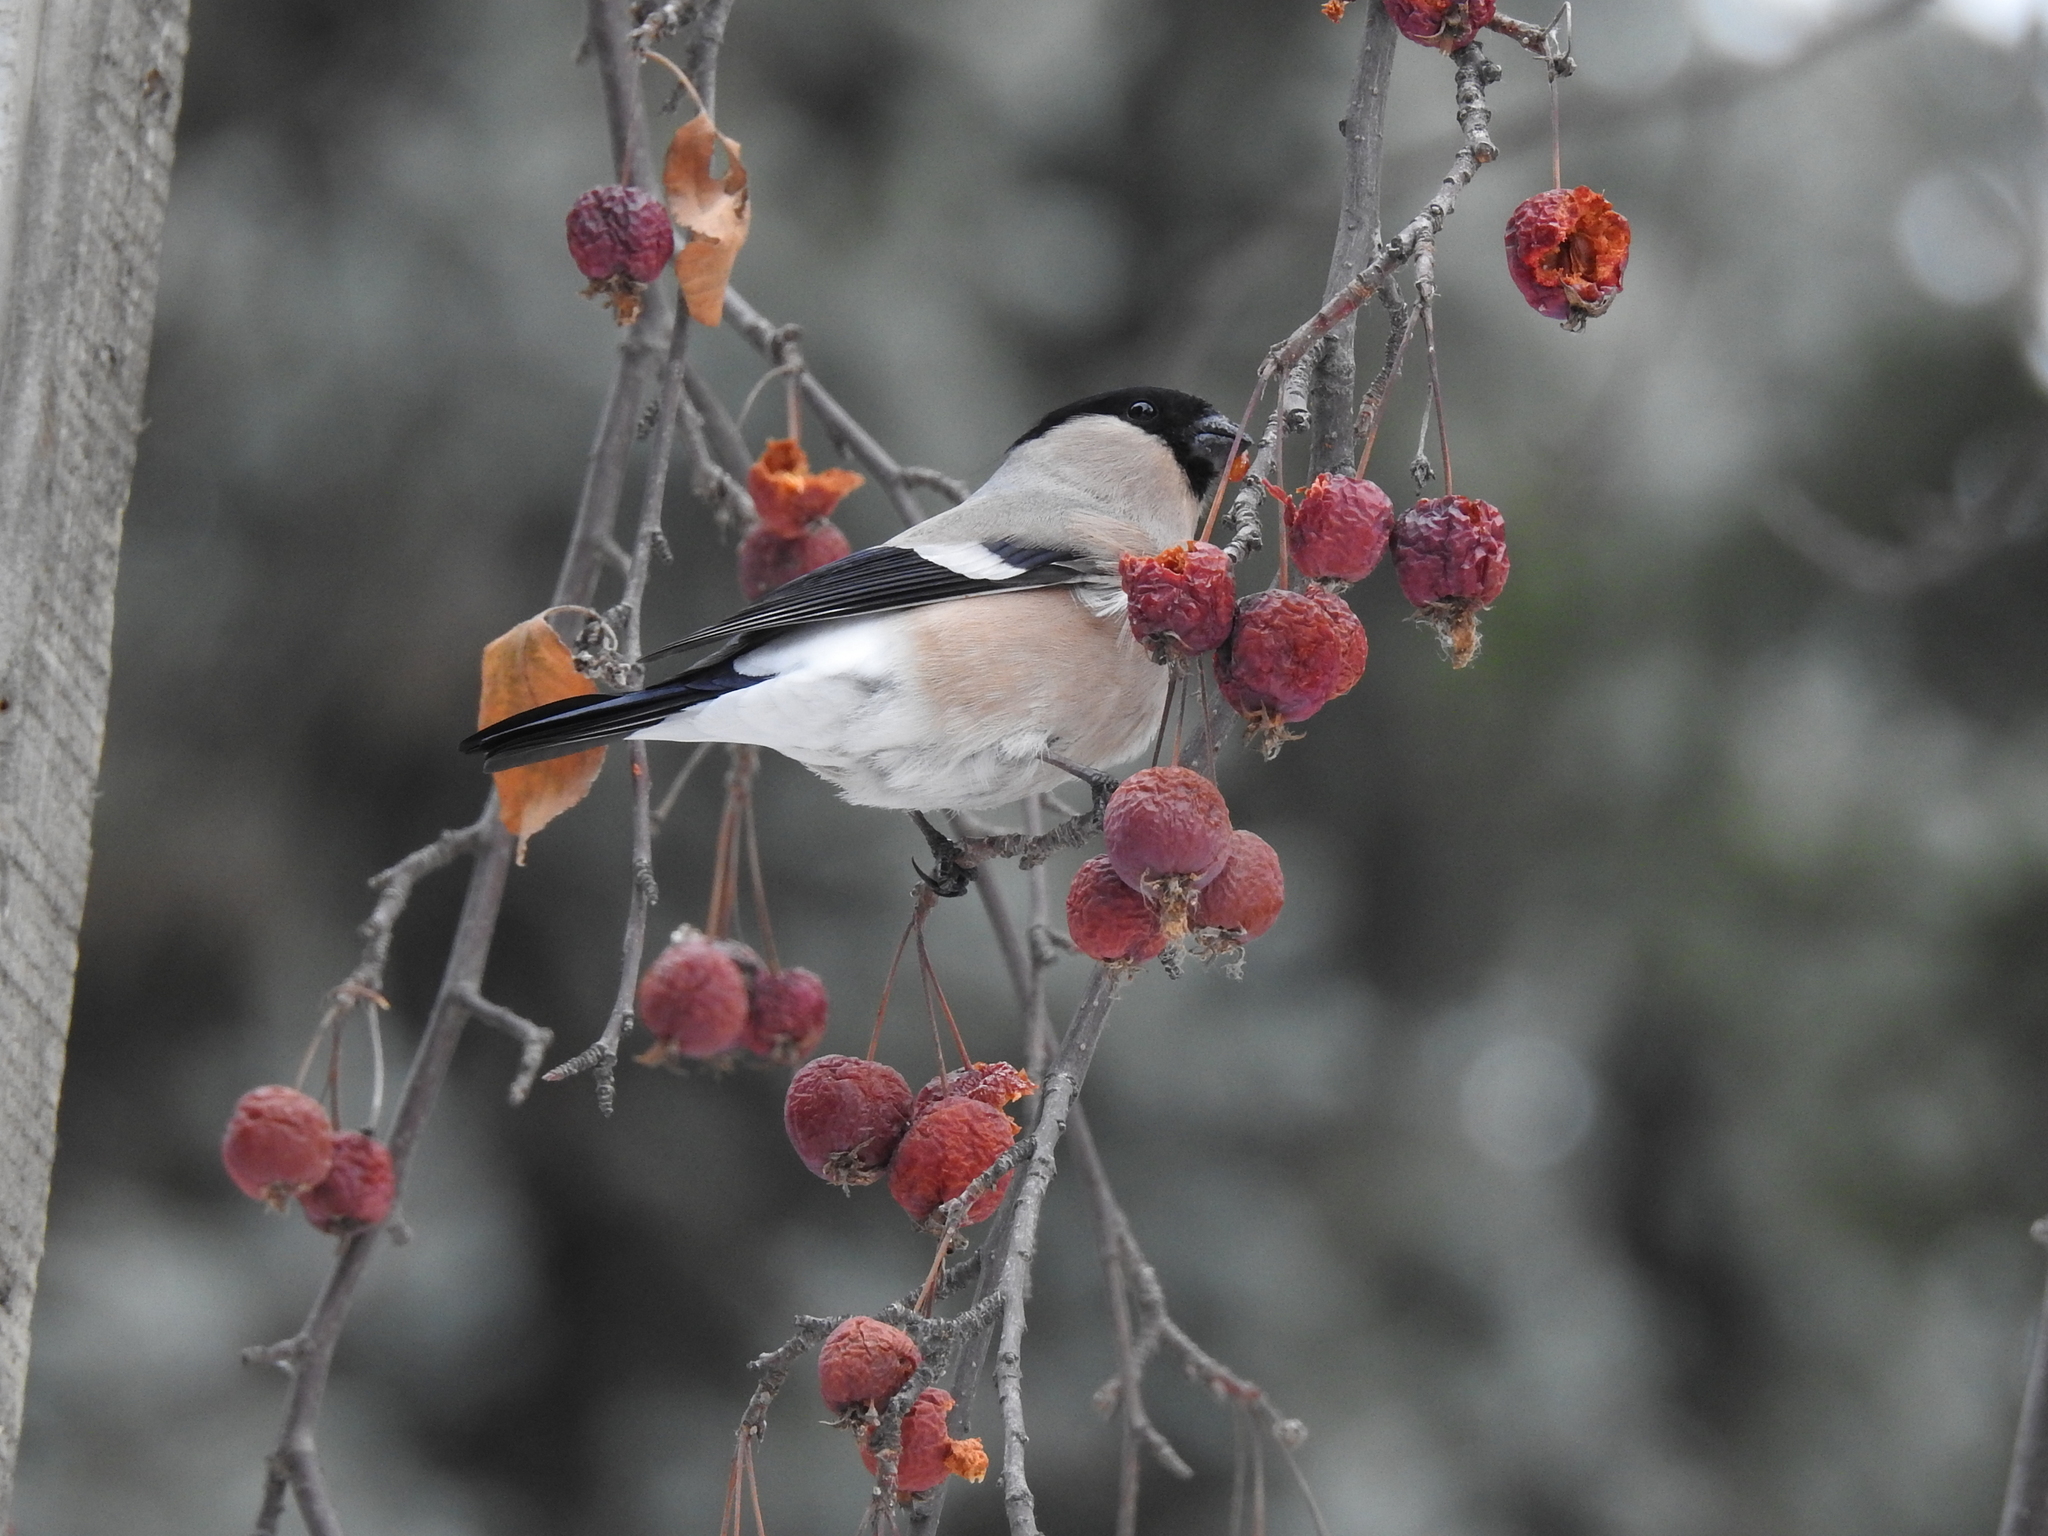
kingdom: Animalia
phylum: Chordata
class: Aves
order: Passeriformes
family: Fringillidae
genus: Pyrrhula
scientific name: Pyrrhula pyrrhula
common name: Eurasian bullfinch
